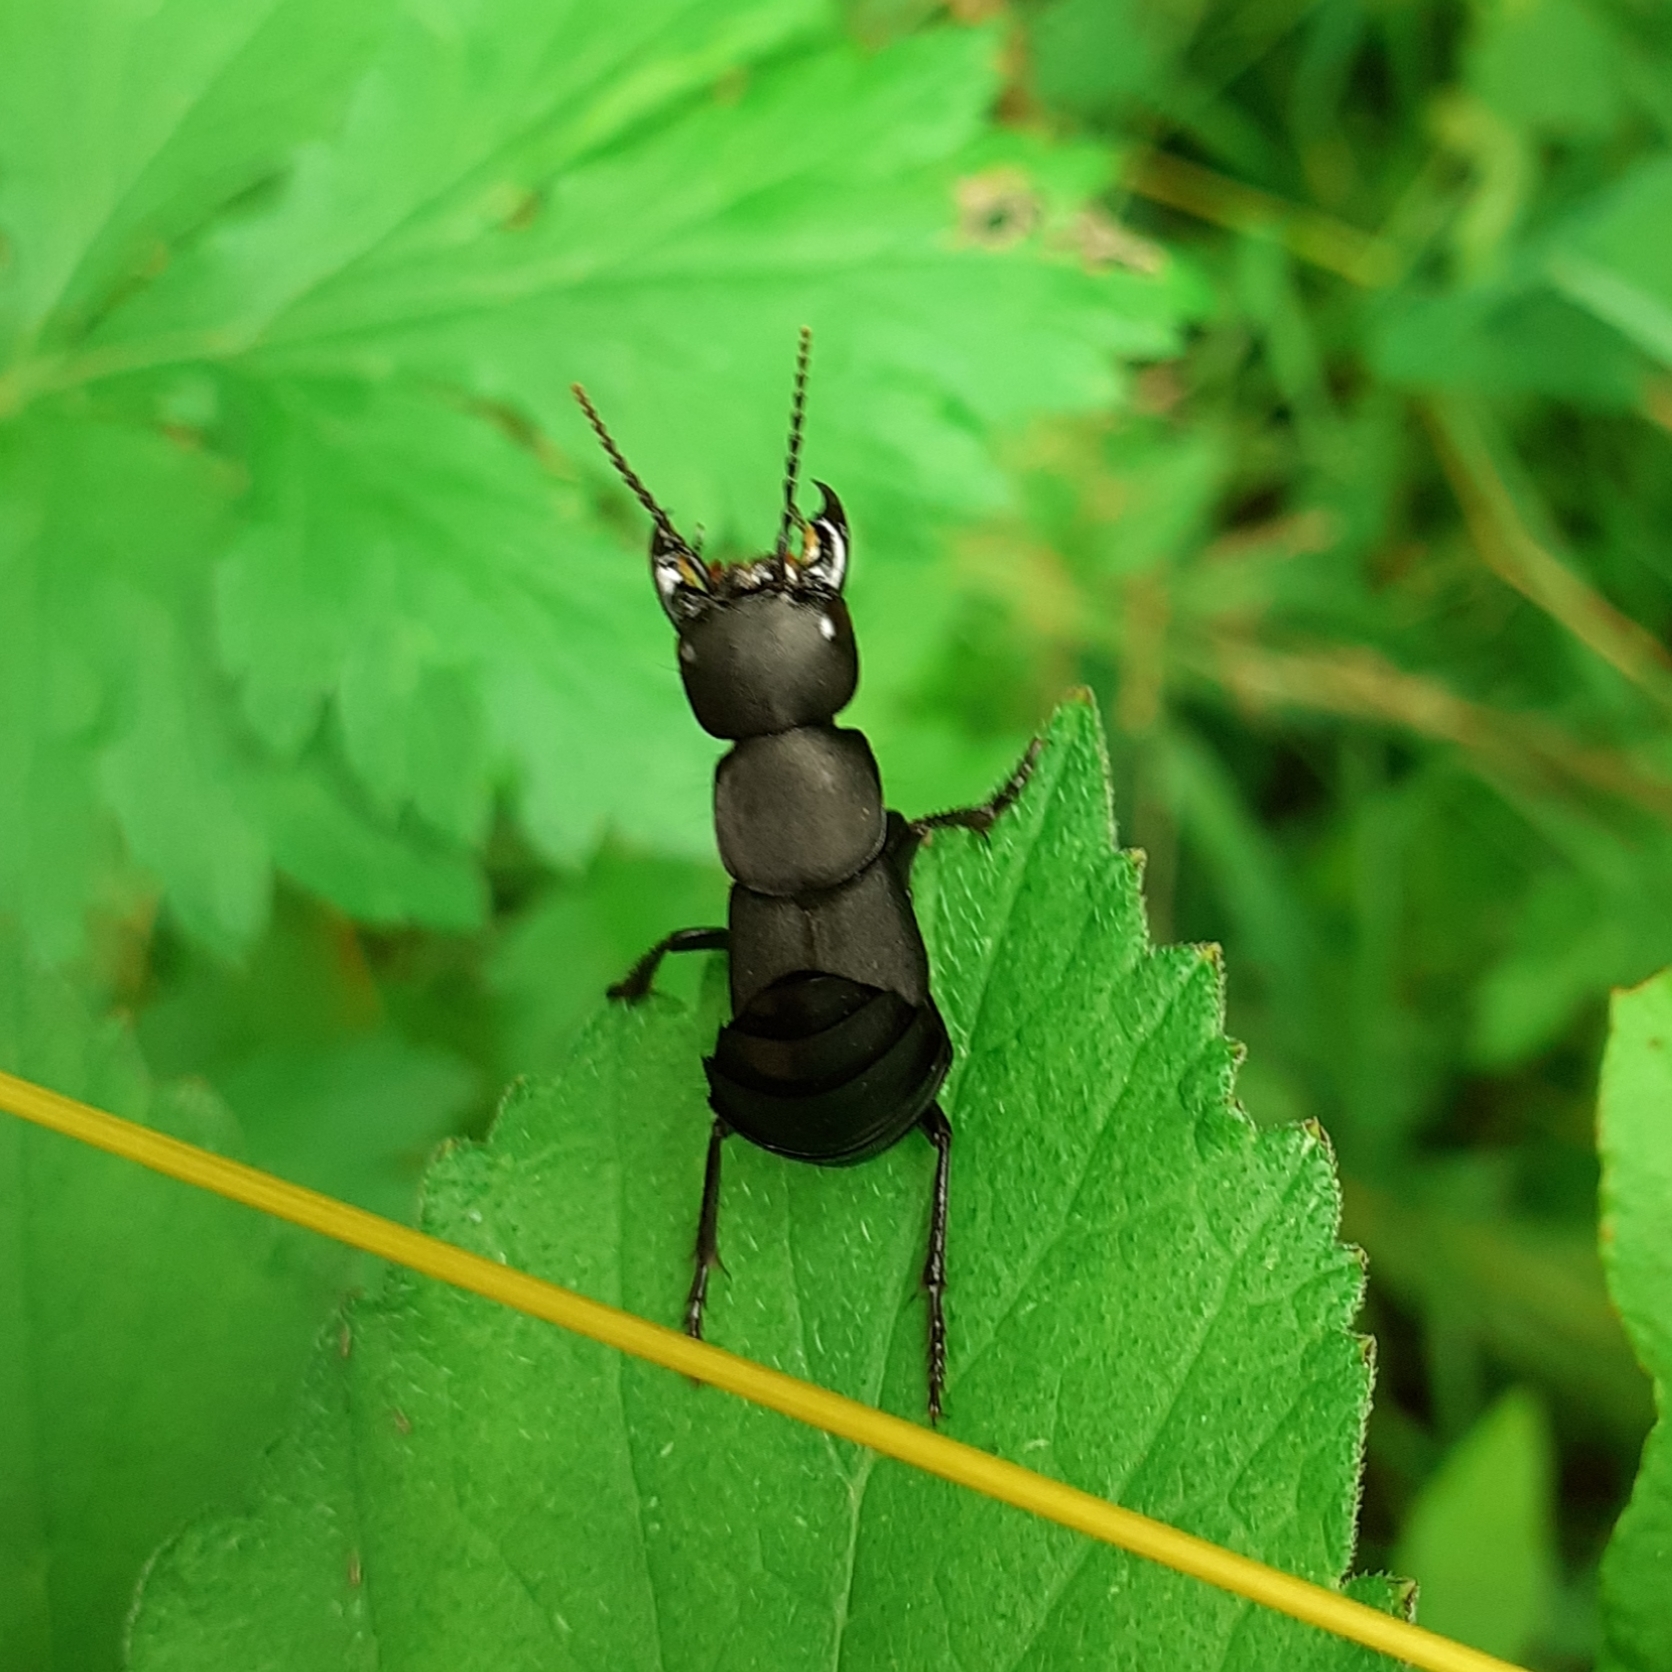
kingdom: Animalia
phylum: Arthropoda
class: Insecta
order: Coleoptera
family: Staphylinidae
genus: Ocypus
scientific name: Ocypus olens
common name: Devil's coach-horse
